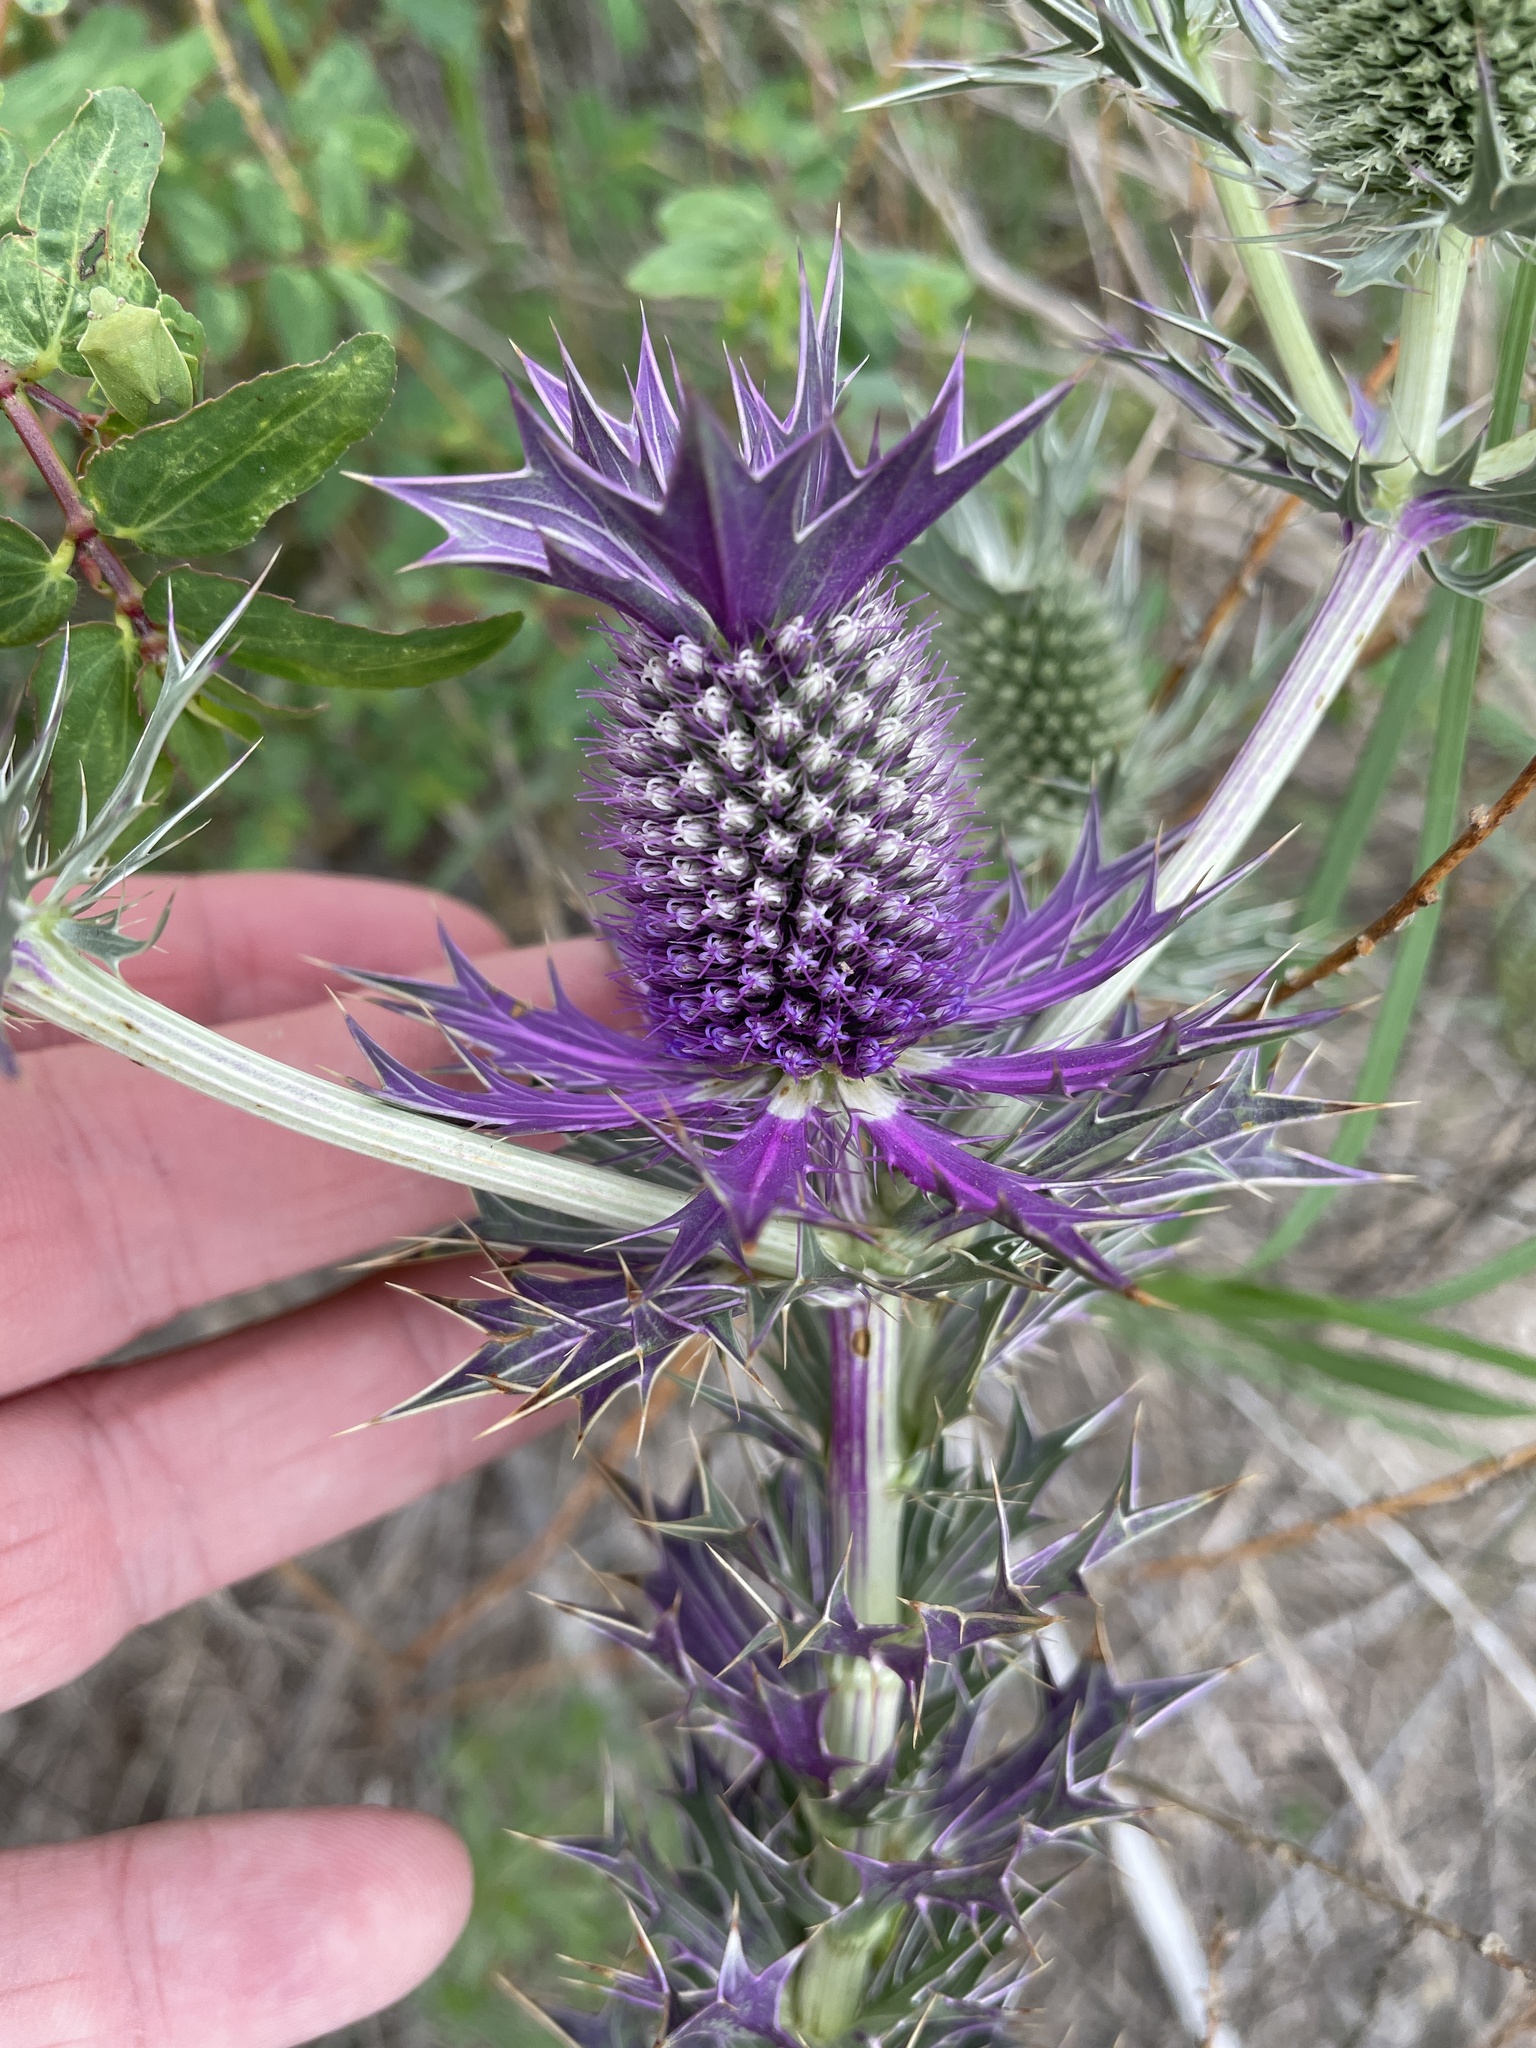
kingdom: Plantae
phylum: Tracheophyta
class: Magnoliopsida
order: Apiales
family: Apiaceae
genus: Eryngium
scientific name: Eryngium leavenworthii
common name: Leavenworth's eryngo
